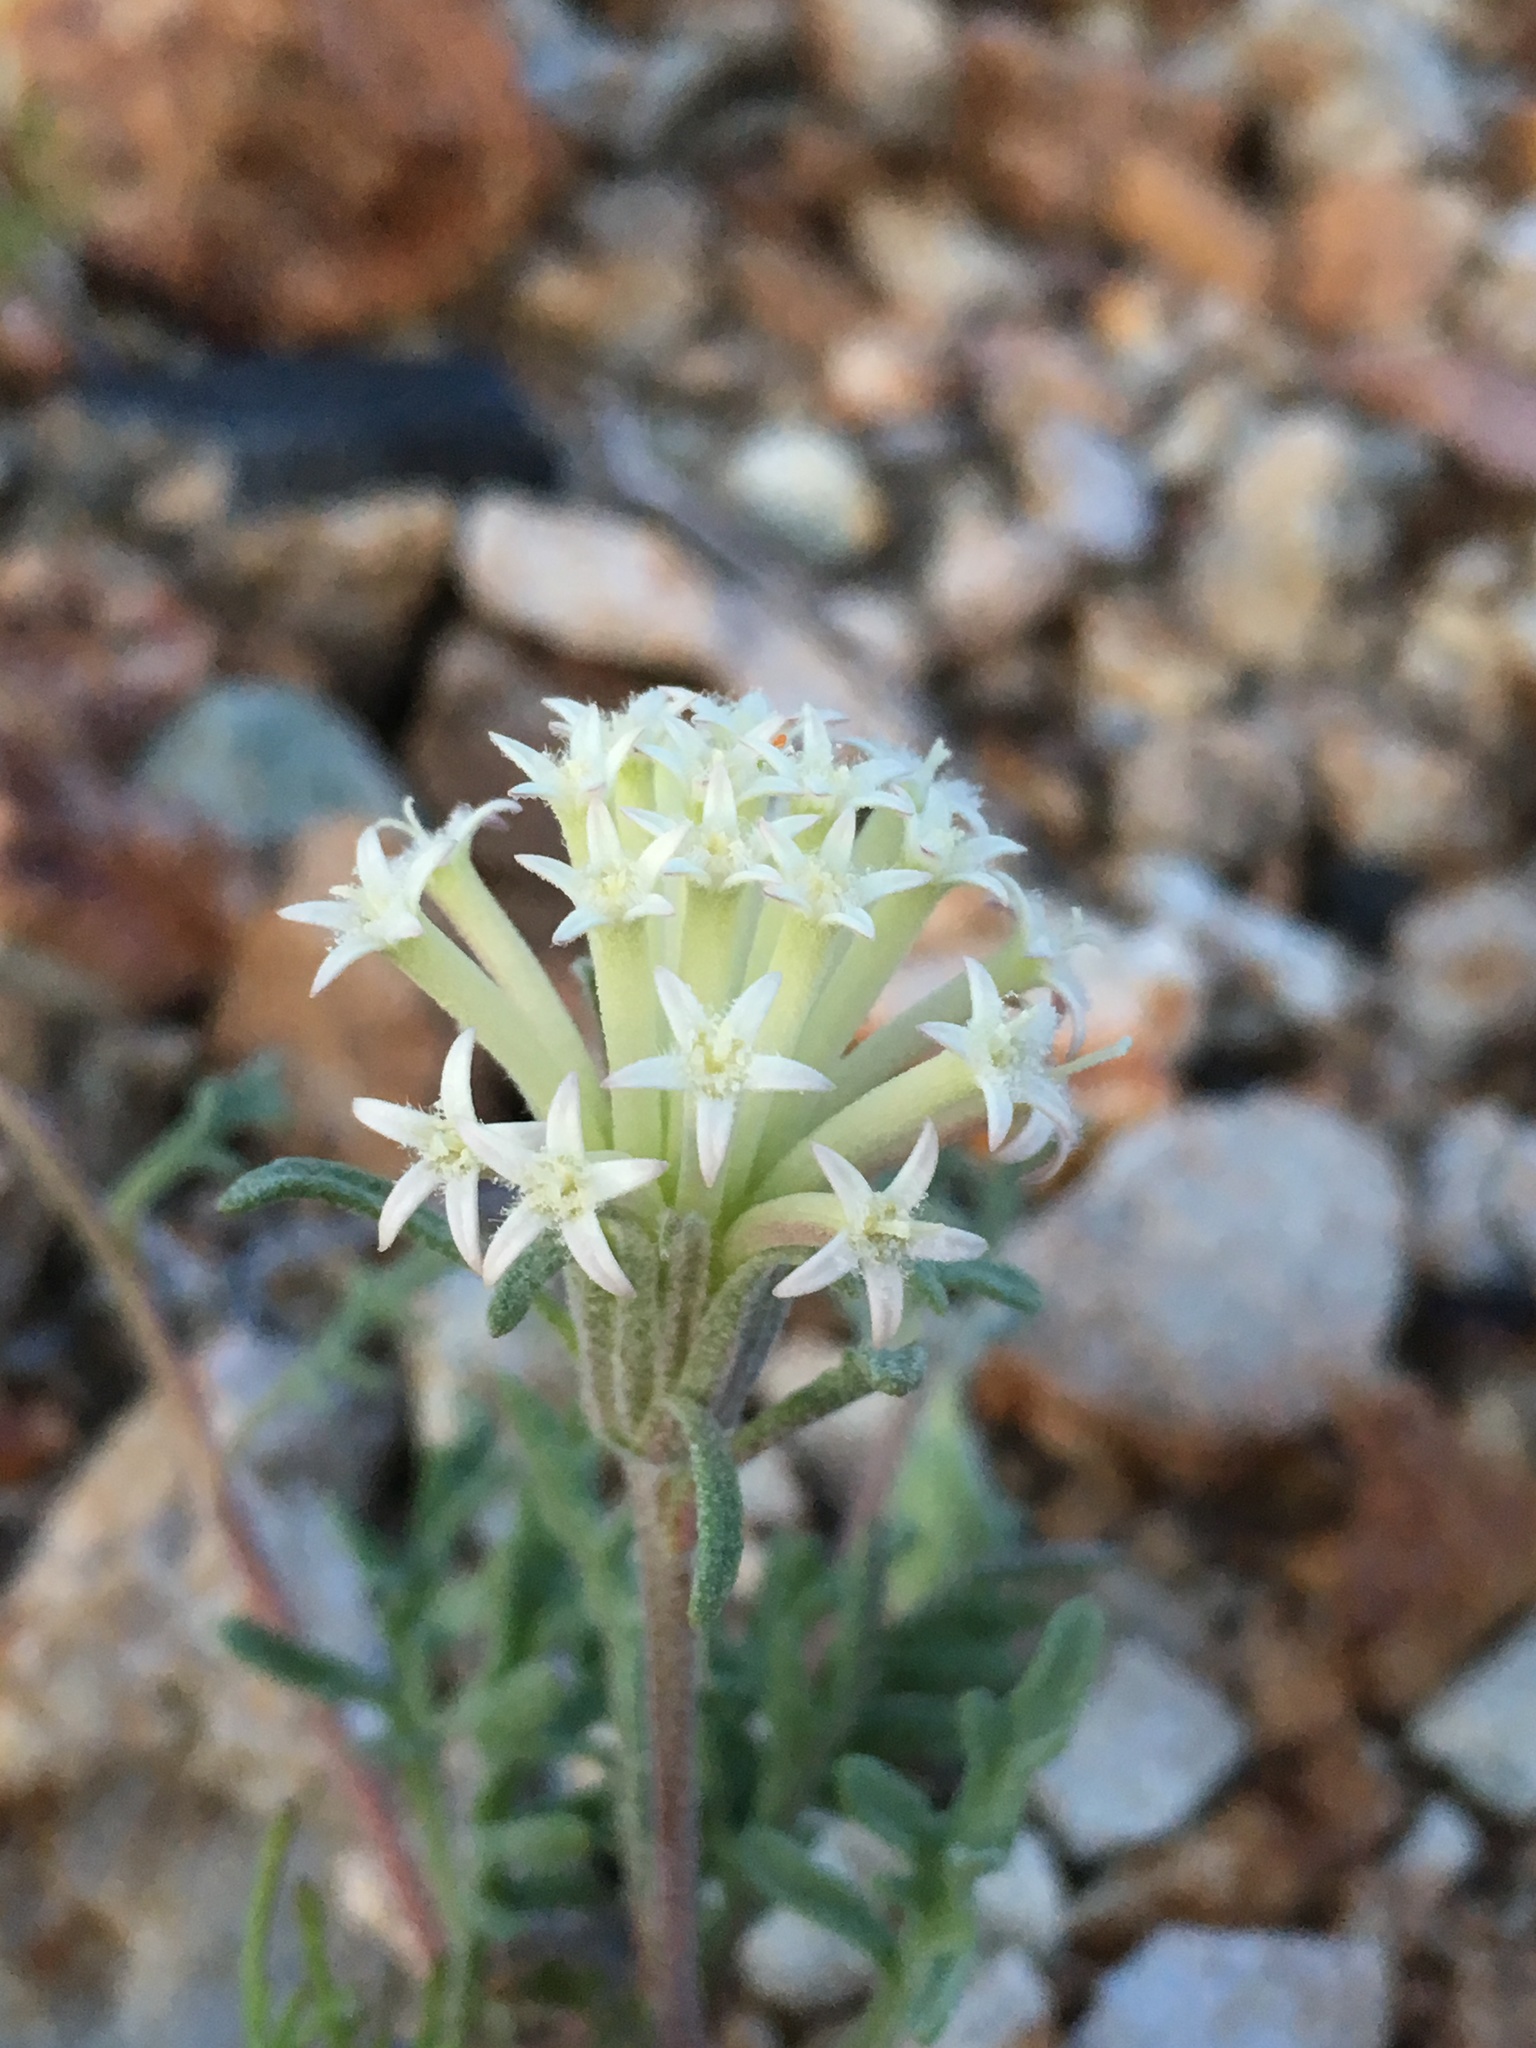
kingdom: Plantae
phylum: Tracheophyta
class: Magnoliopsida
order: Asterales
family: Asteraceae
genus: Chaenactis
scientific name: Chaenactis macrantha
